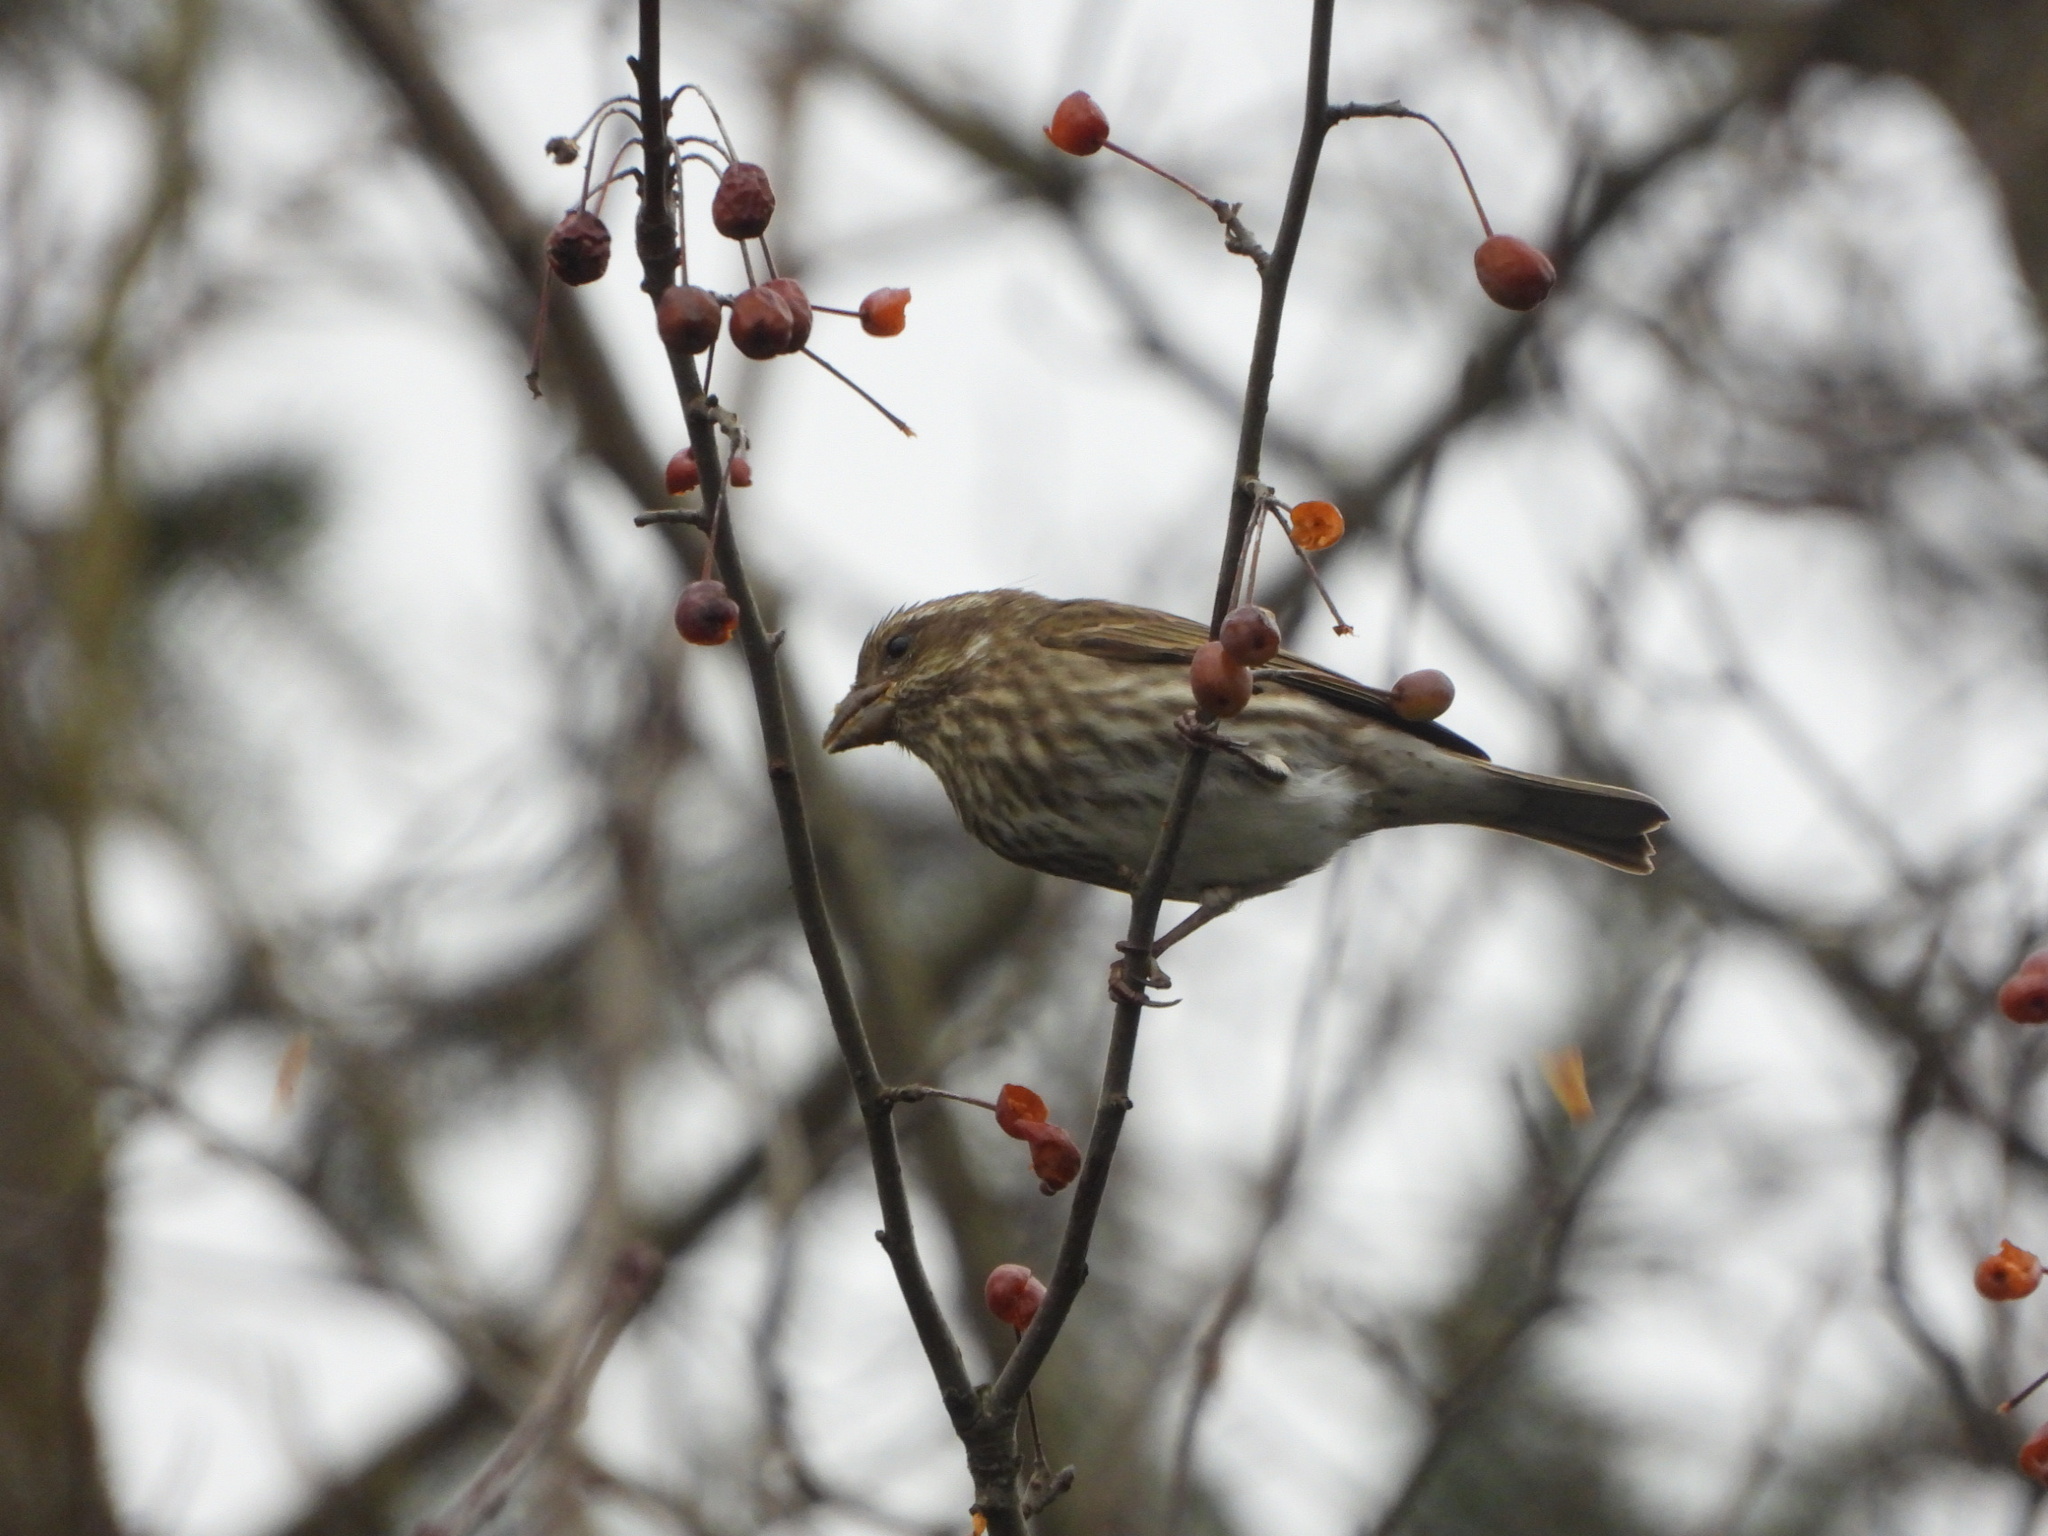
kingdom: Animalia
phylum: Chordata
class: Aves
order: Passeriformes
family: Fringillidae
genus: Haemorhous
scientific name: Haemorhous purpureus
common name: Purple finch
